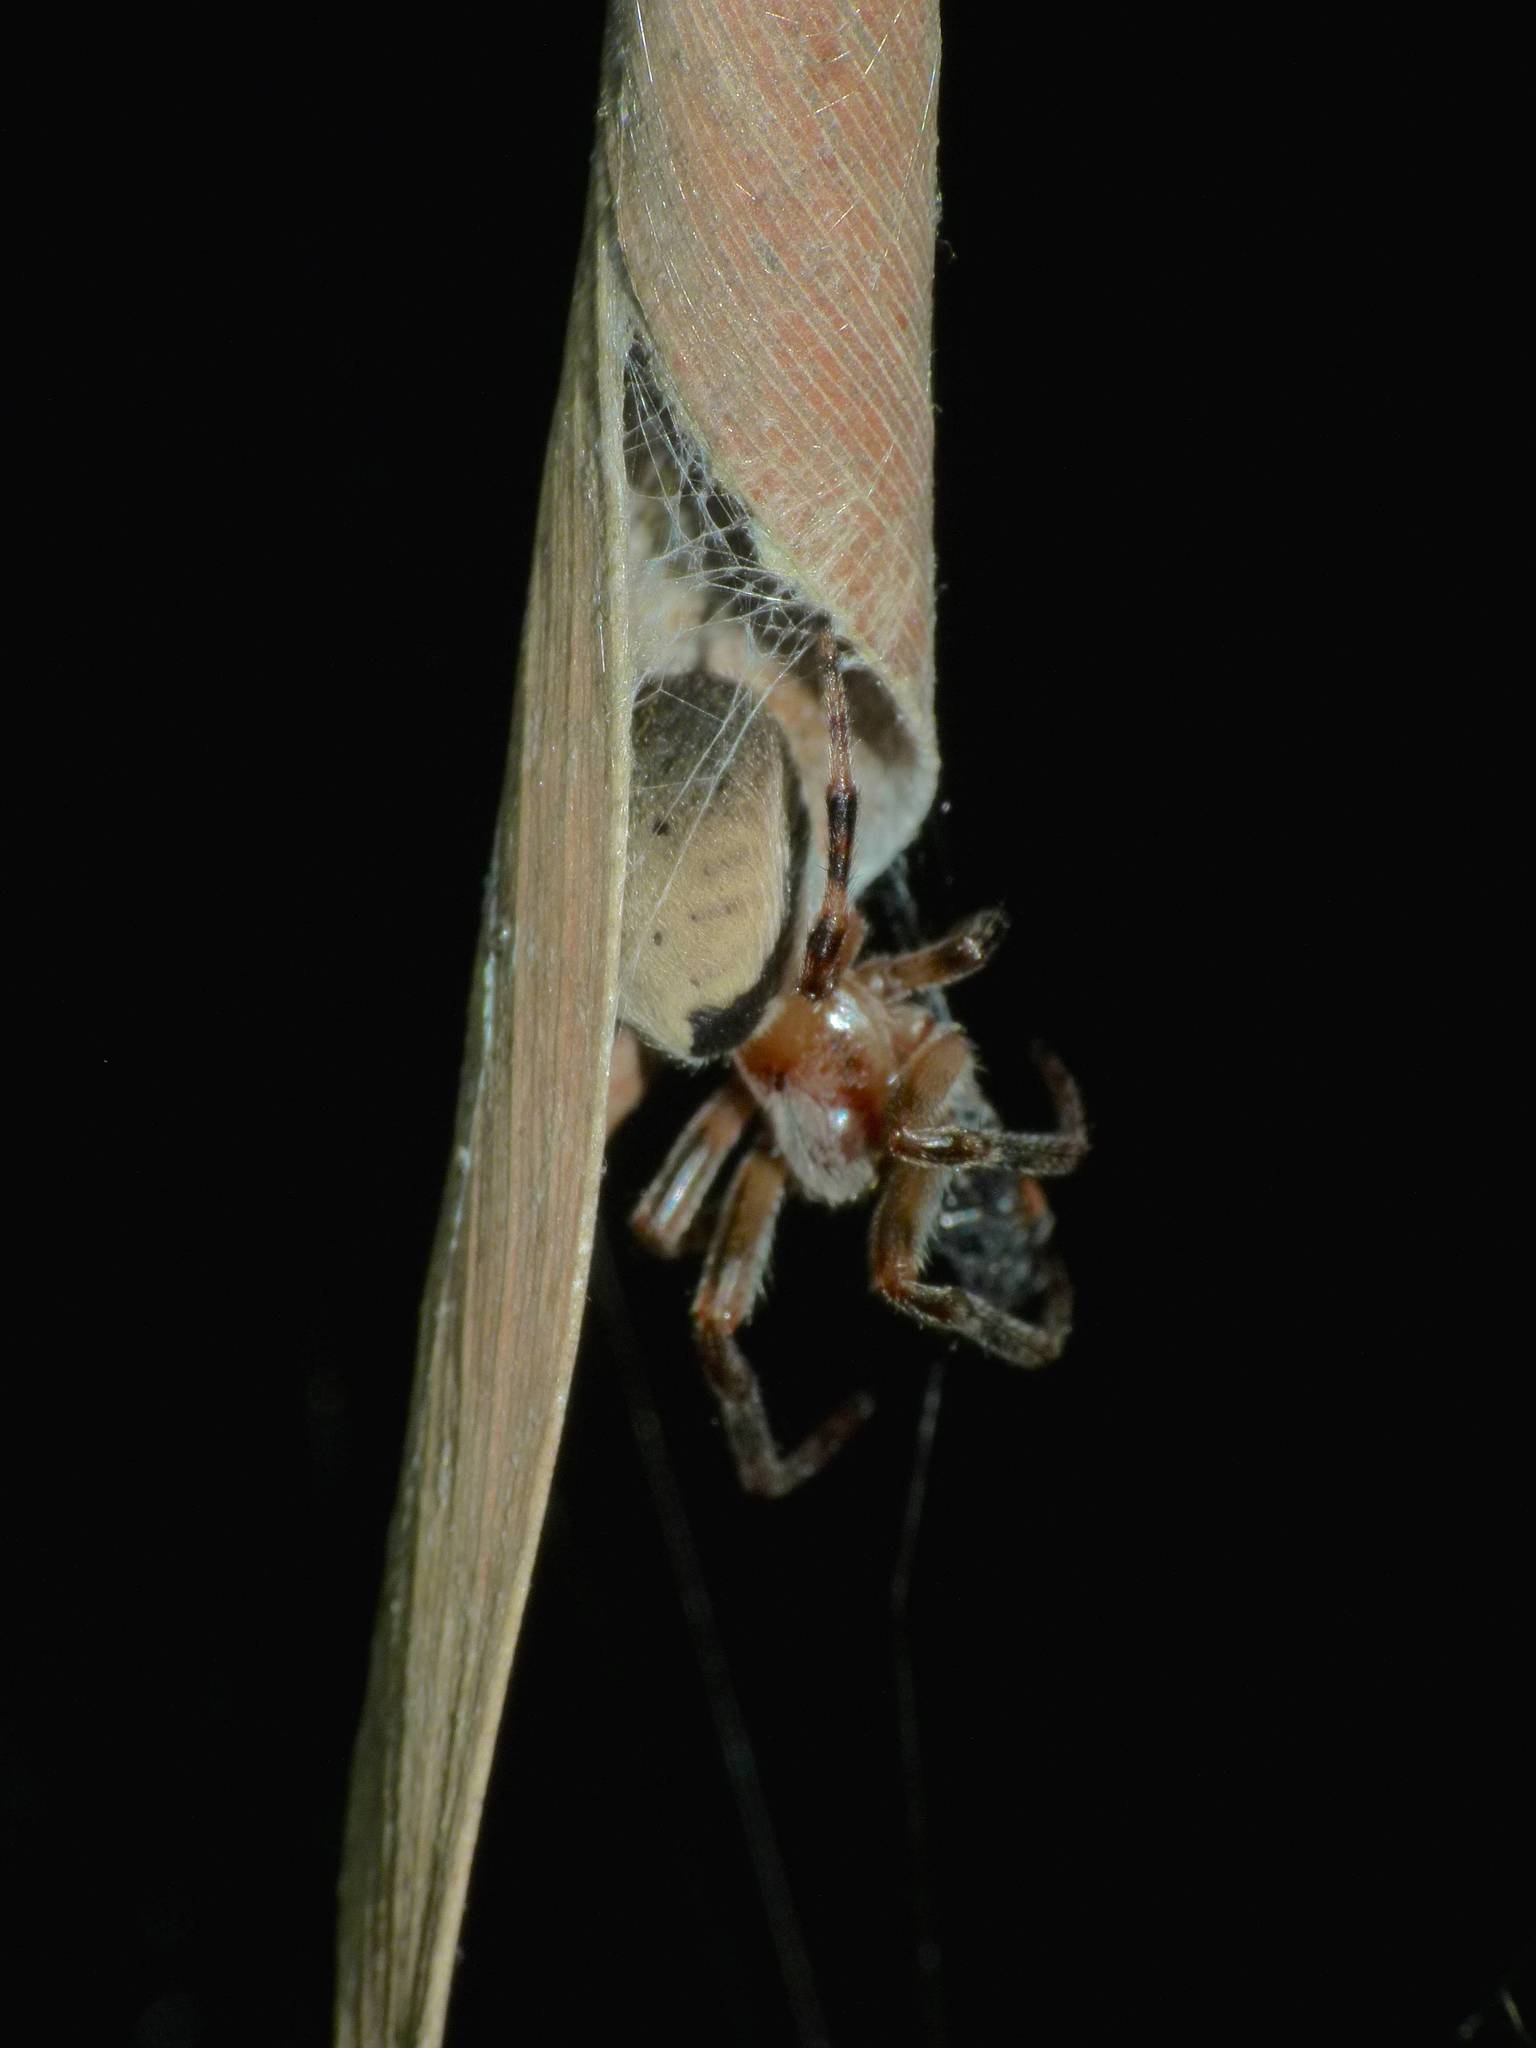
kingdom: Animalia
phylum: Arthropoda
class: Arachnida
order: Araneae
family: Araneidae
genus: Araneus
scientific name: Araneus dimidiatus
